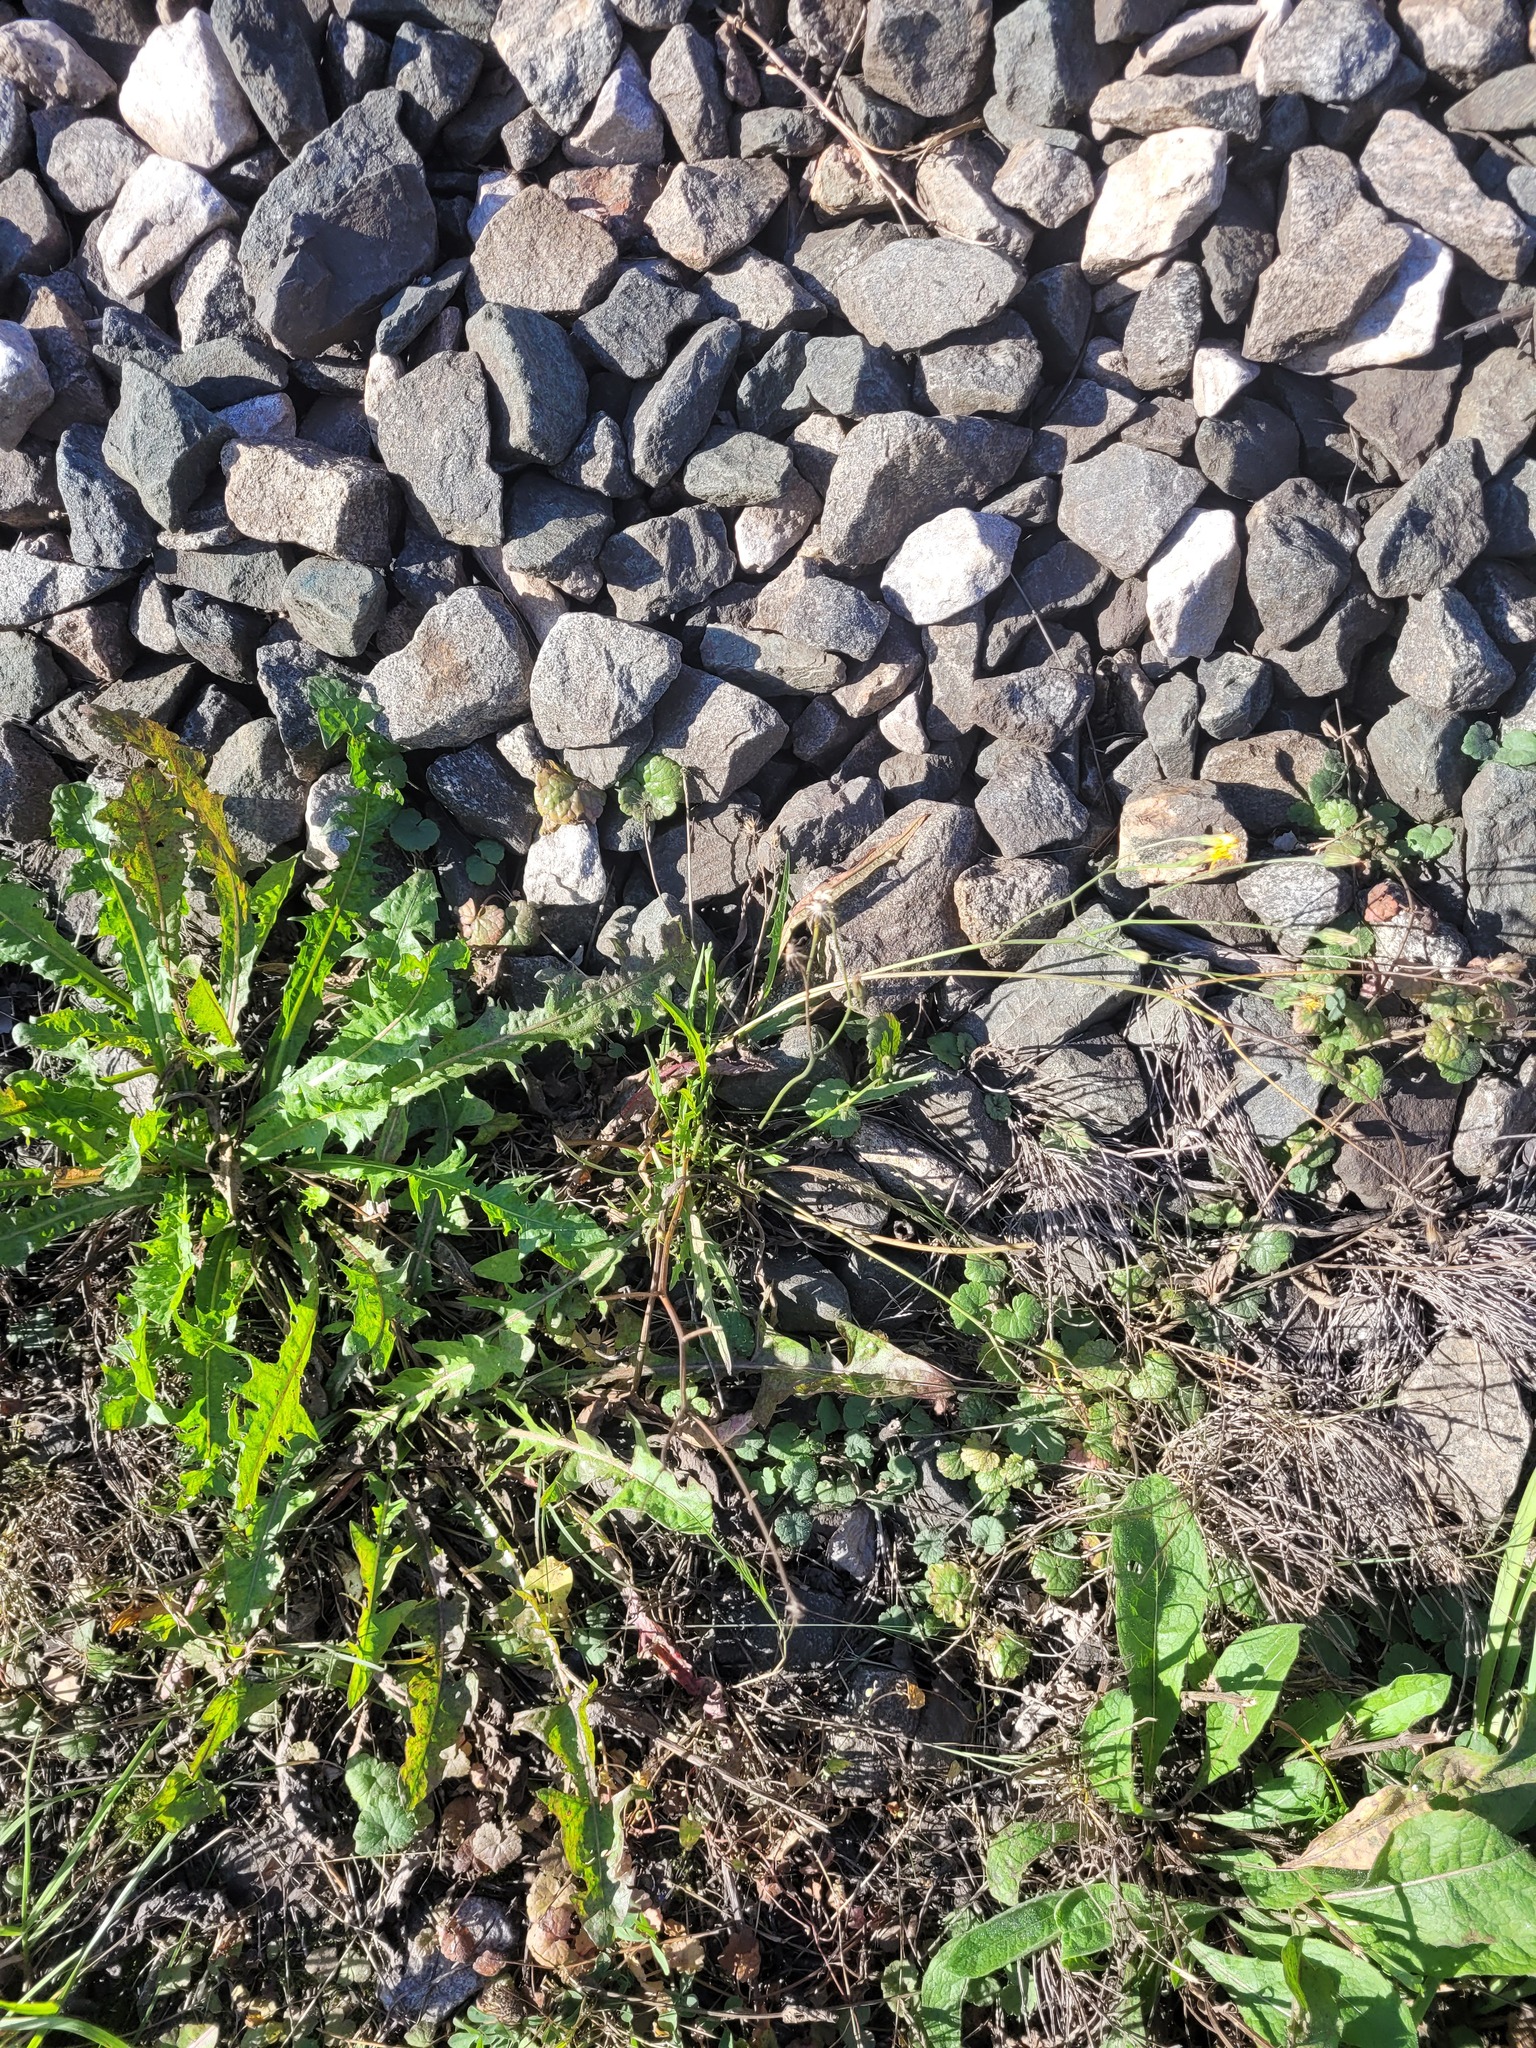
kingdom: Plantae
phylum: Tracheophyta
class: Magnoliopsida
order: Asterales
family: Asteraceae
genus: Scorzoneroides
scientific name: Scorzoneroides autumnalis
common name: Autumn hawkbit
